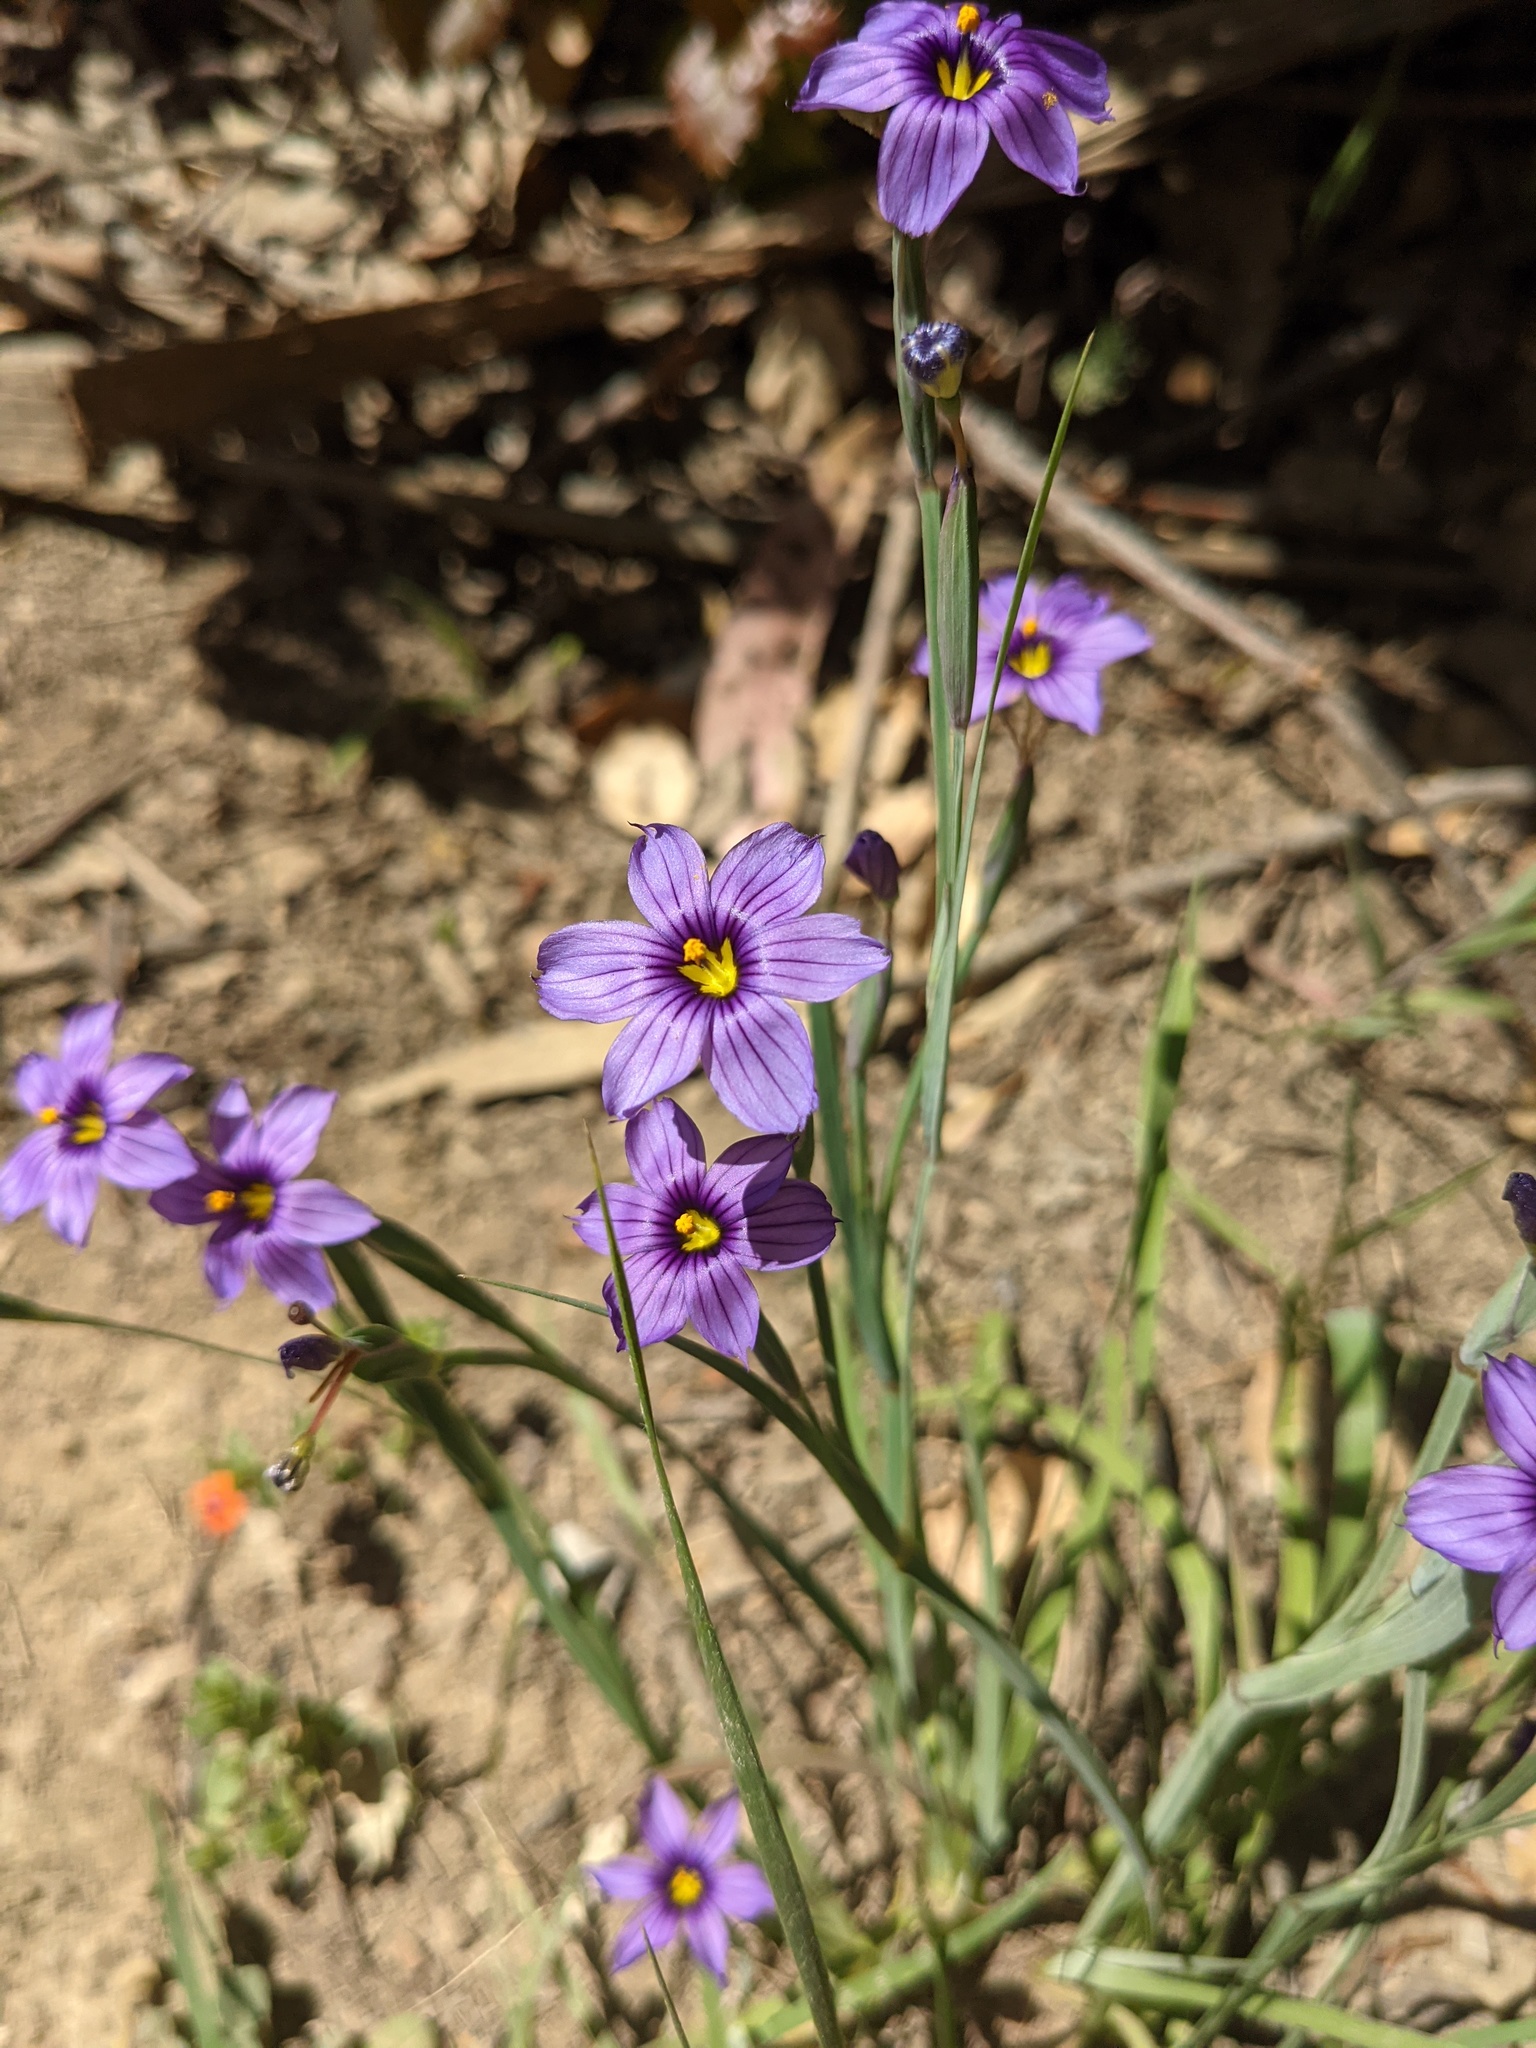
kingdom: Plantae
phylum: Tracheophyta
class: Liliopsida
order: Asparagales
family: Iridaceae
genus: Sisyrinchium
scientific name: Sisyrinchium bellum
